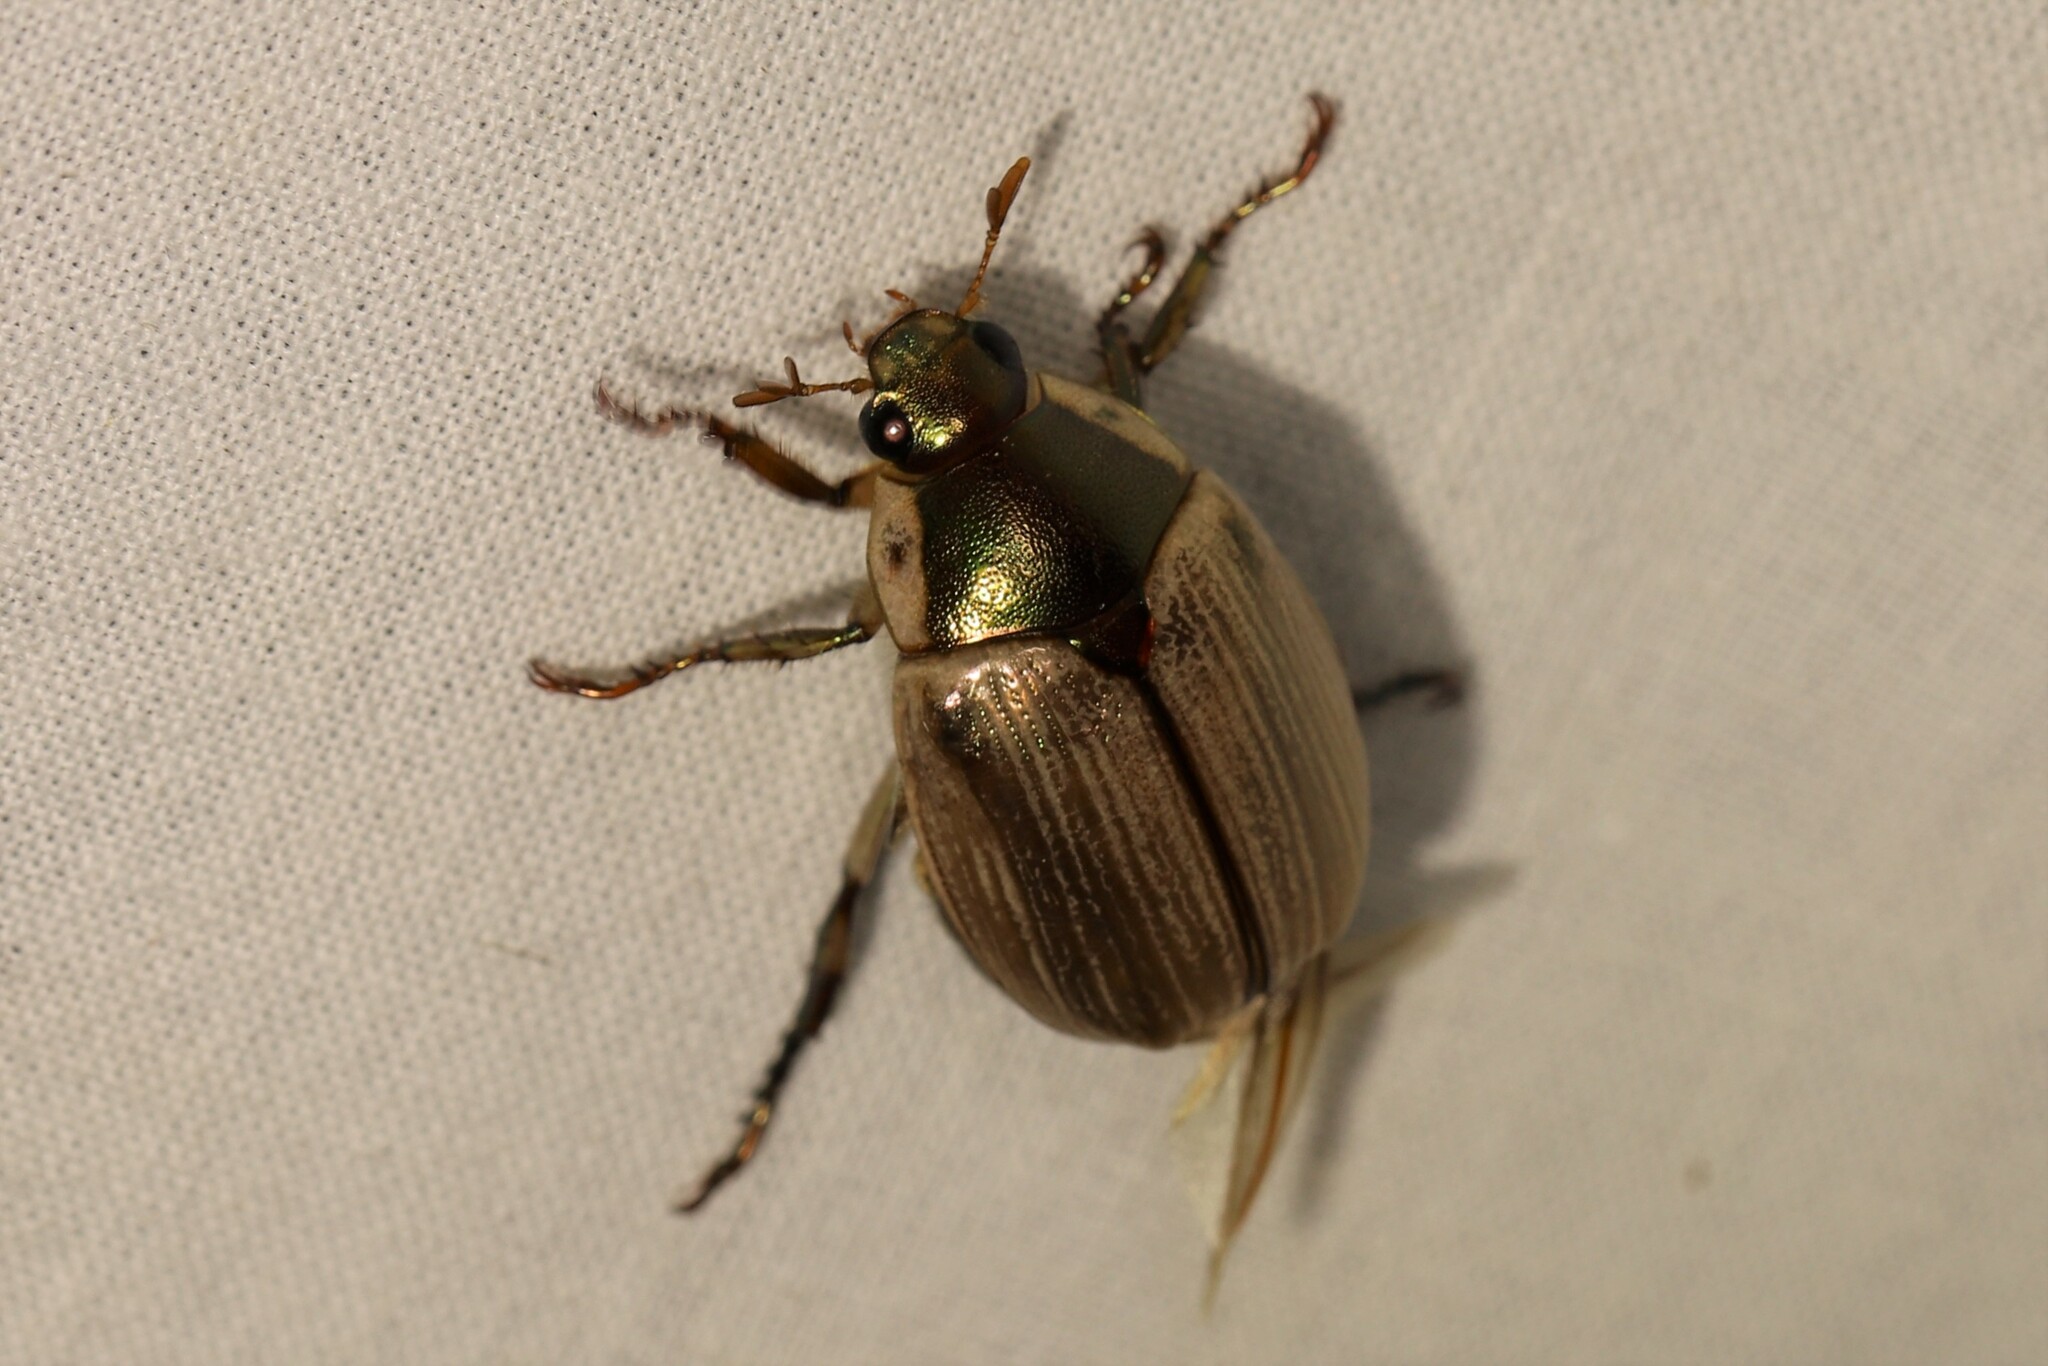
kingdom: Animalia
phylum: Arthropoda
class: Insecta
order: Coleoptera
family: Scarabaeidae
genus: Callistethus
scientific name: Callistethus marginatus
